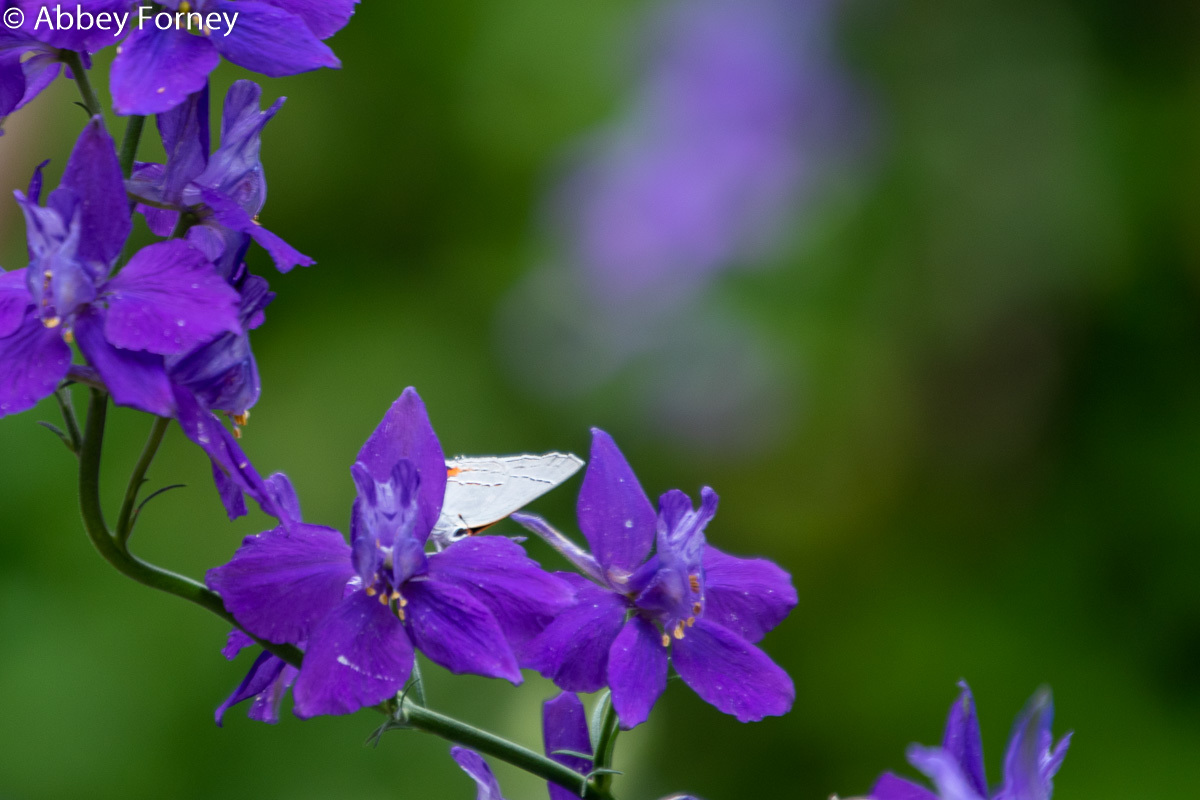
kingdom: Animalia
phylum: Arthropoda
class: Insecta
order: Lepidoptera
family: Lycaenidae
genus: Strymon
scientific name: Strymon melinus
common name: Gray hairstreak
